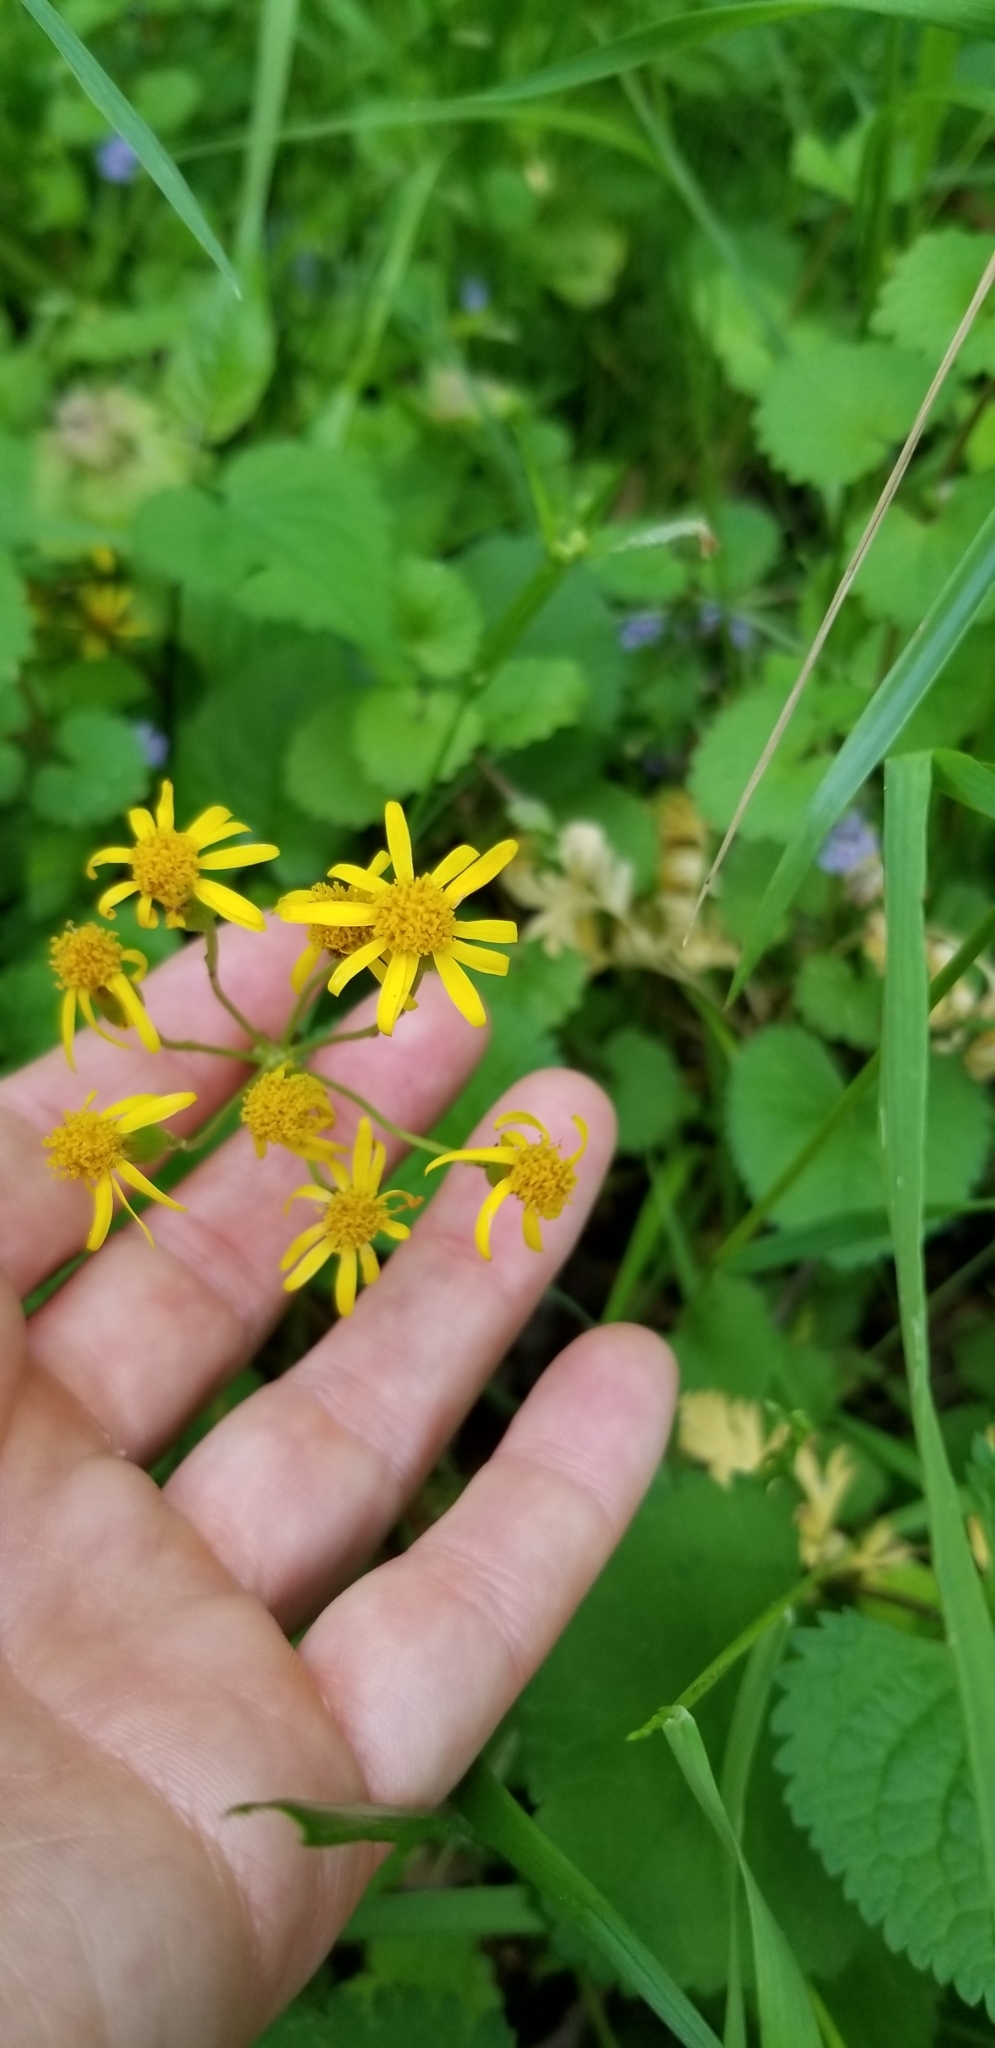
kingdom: Plantae
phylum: Tracheophyta
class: Magnoliopsida
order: Asterales
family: Asteraceae
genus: Packera
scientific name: Packera aurea
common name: Golden groundsel
